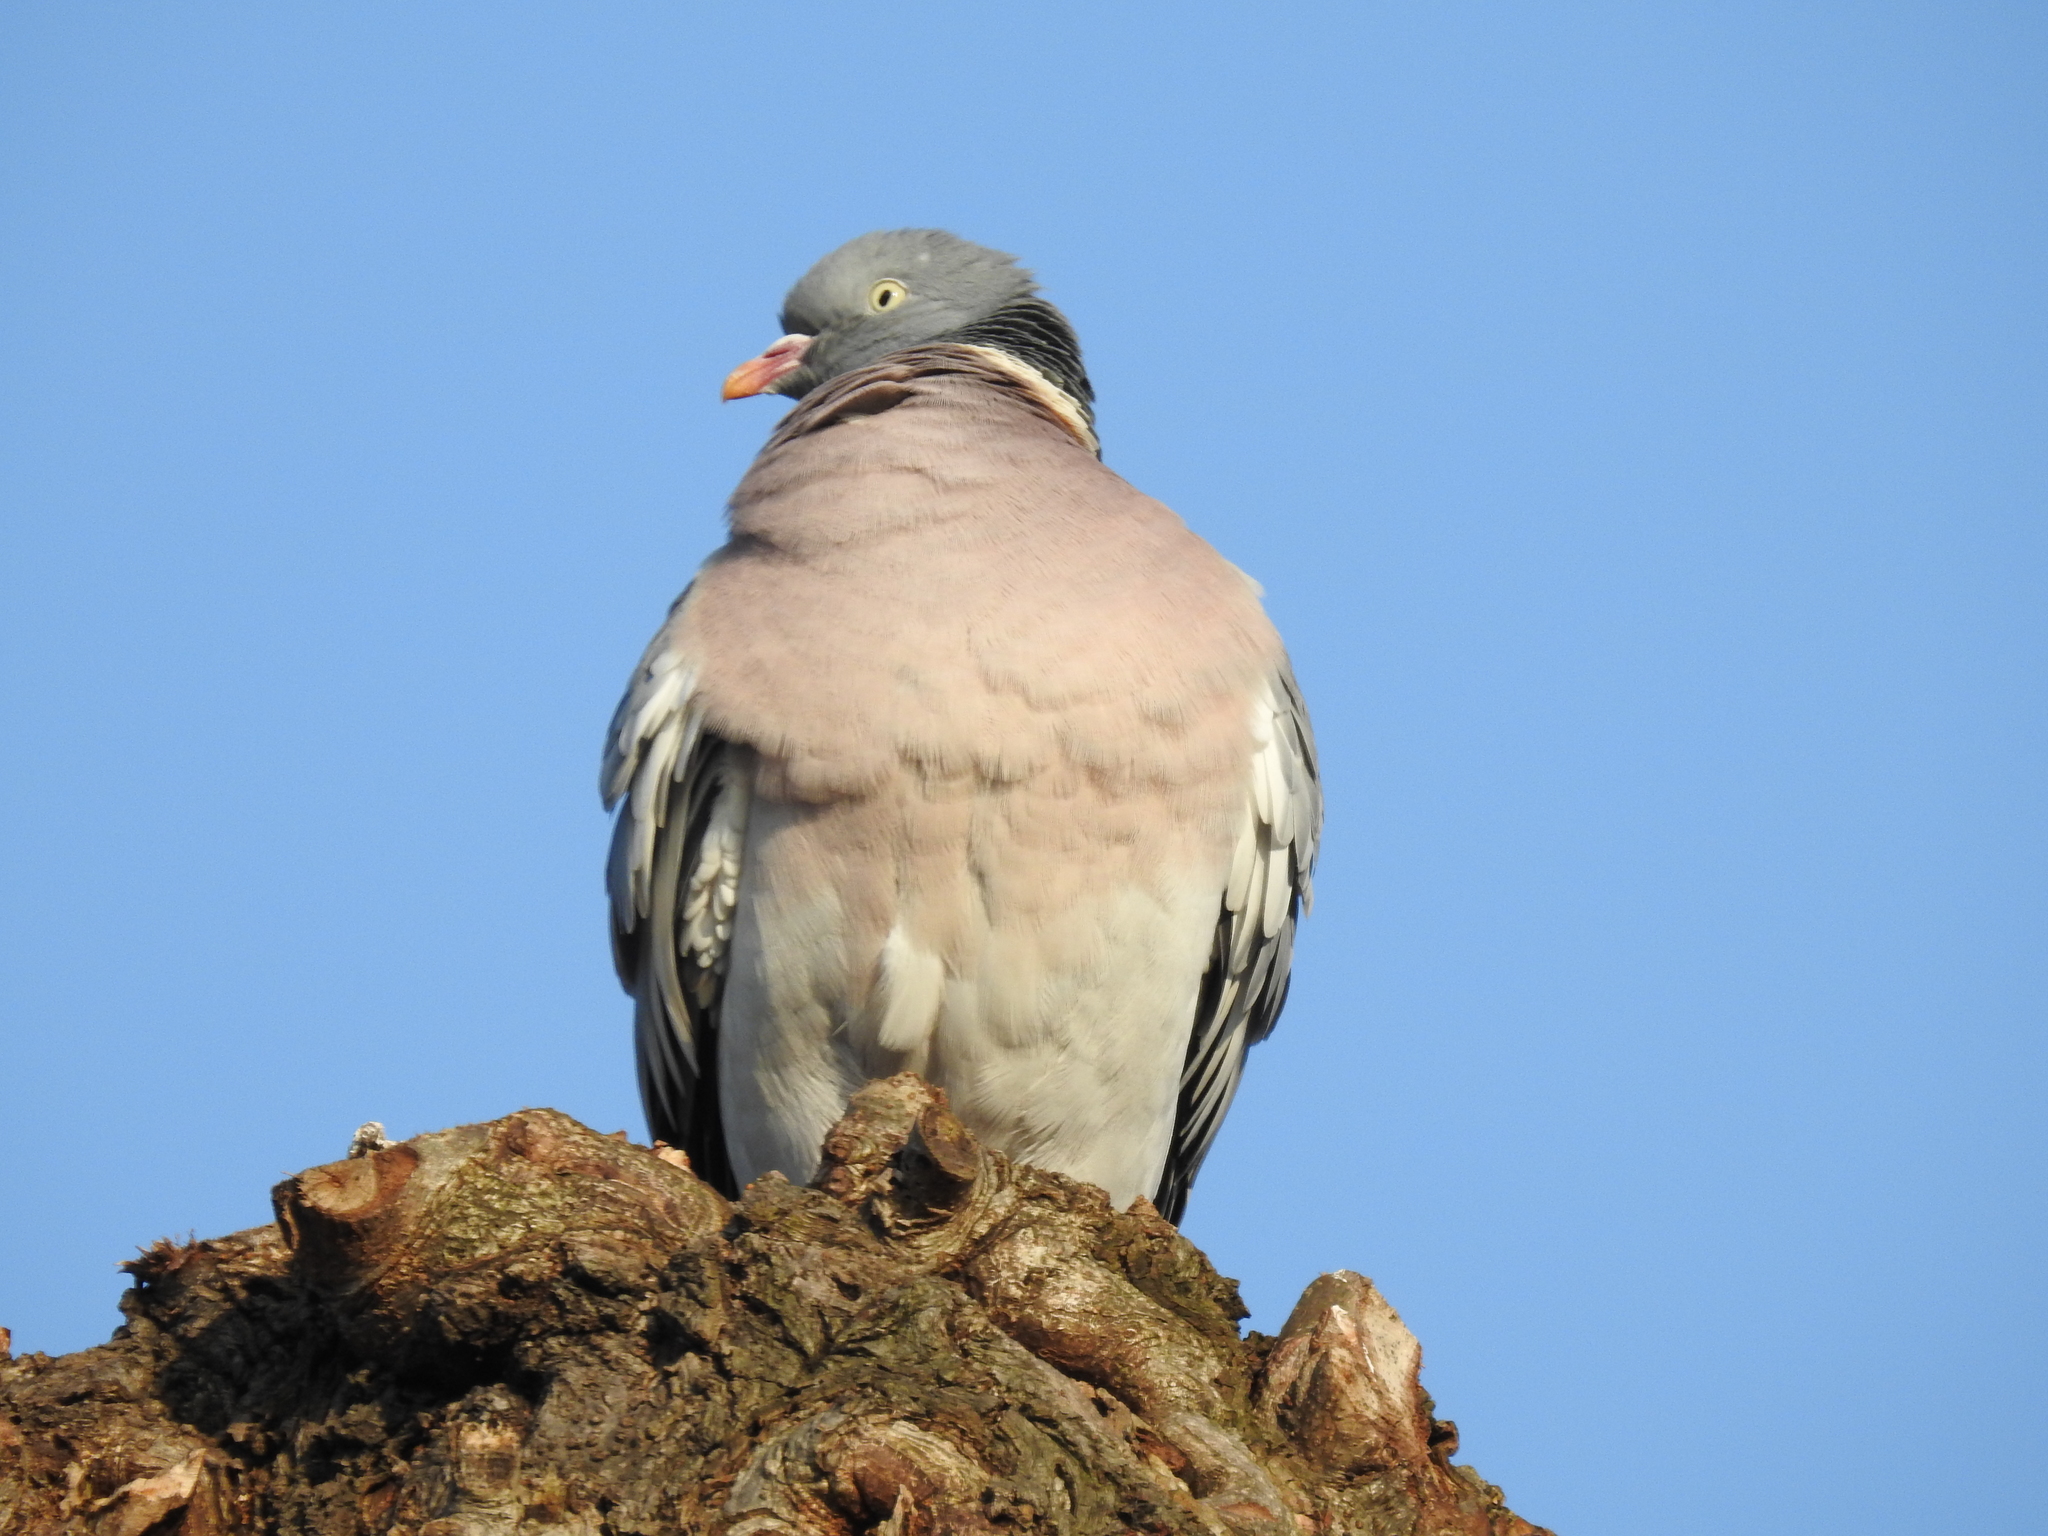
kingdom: Animalia
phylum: Chordata
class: Aves
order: Columbiformes
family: Columbidae
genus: Columba
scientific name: Columba palumbus
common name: Common wood pigeon
